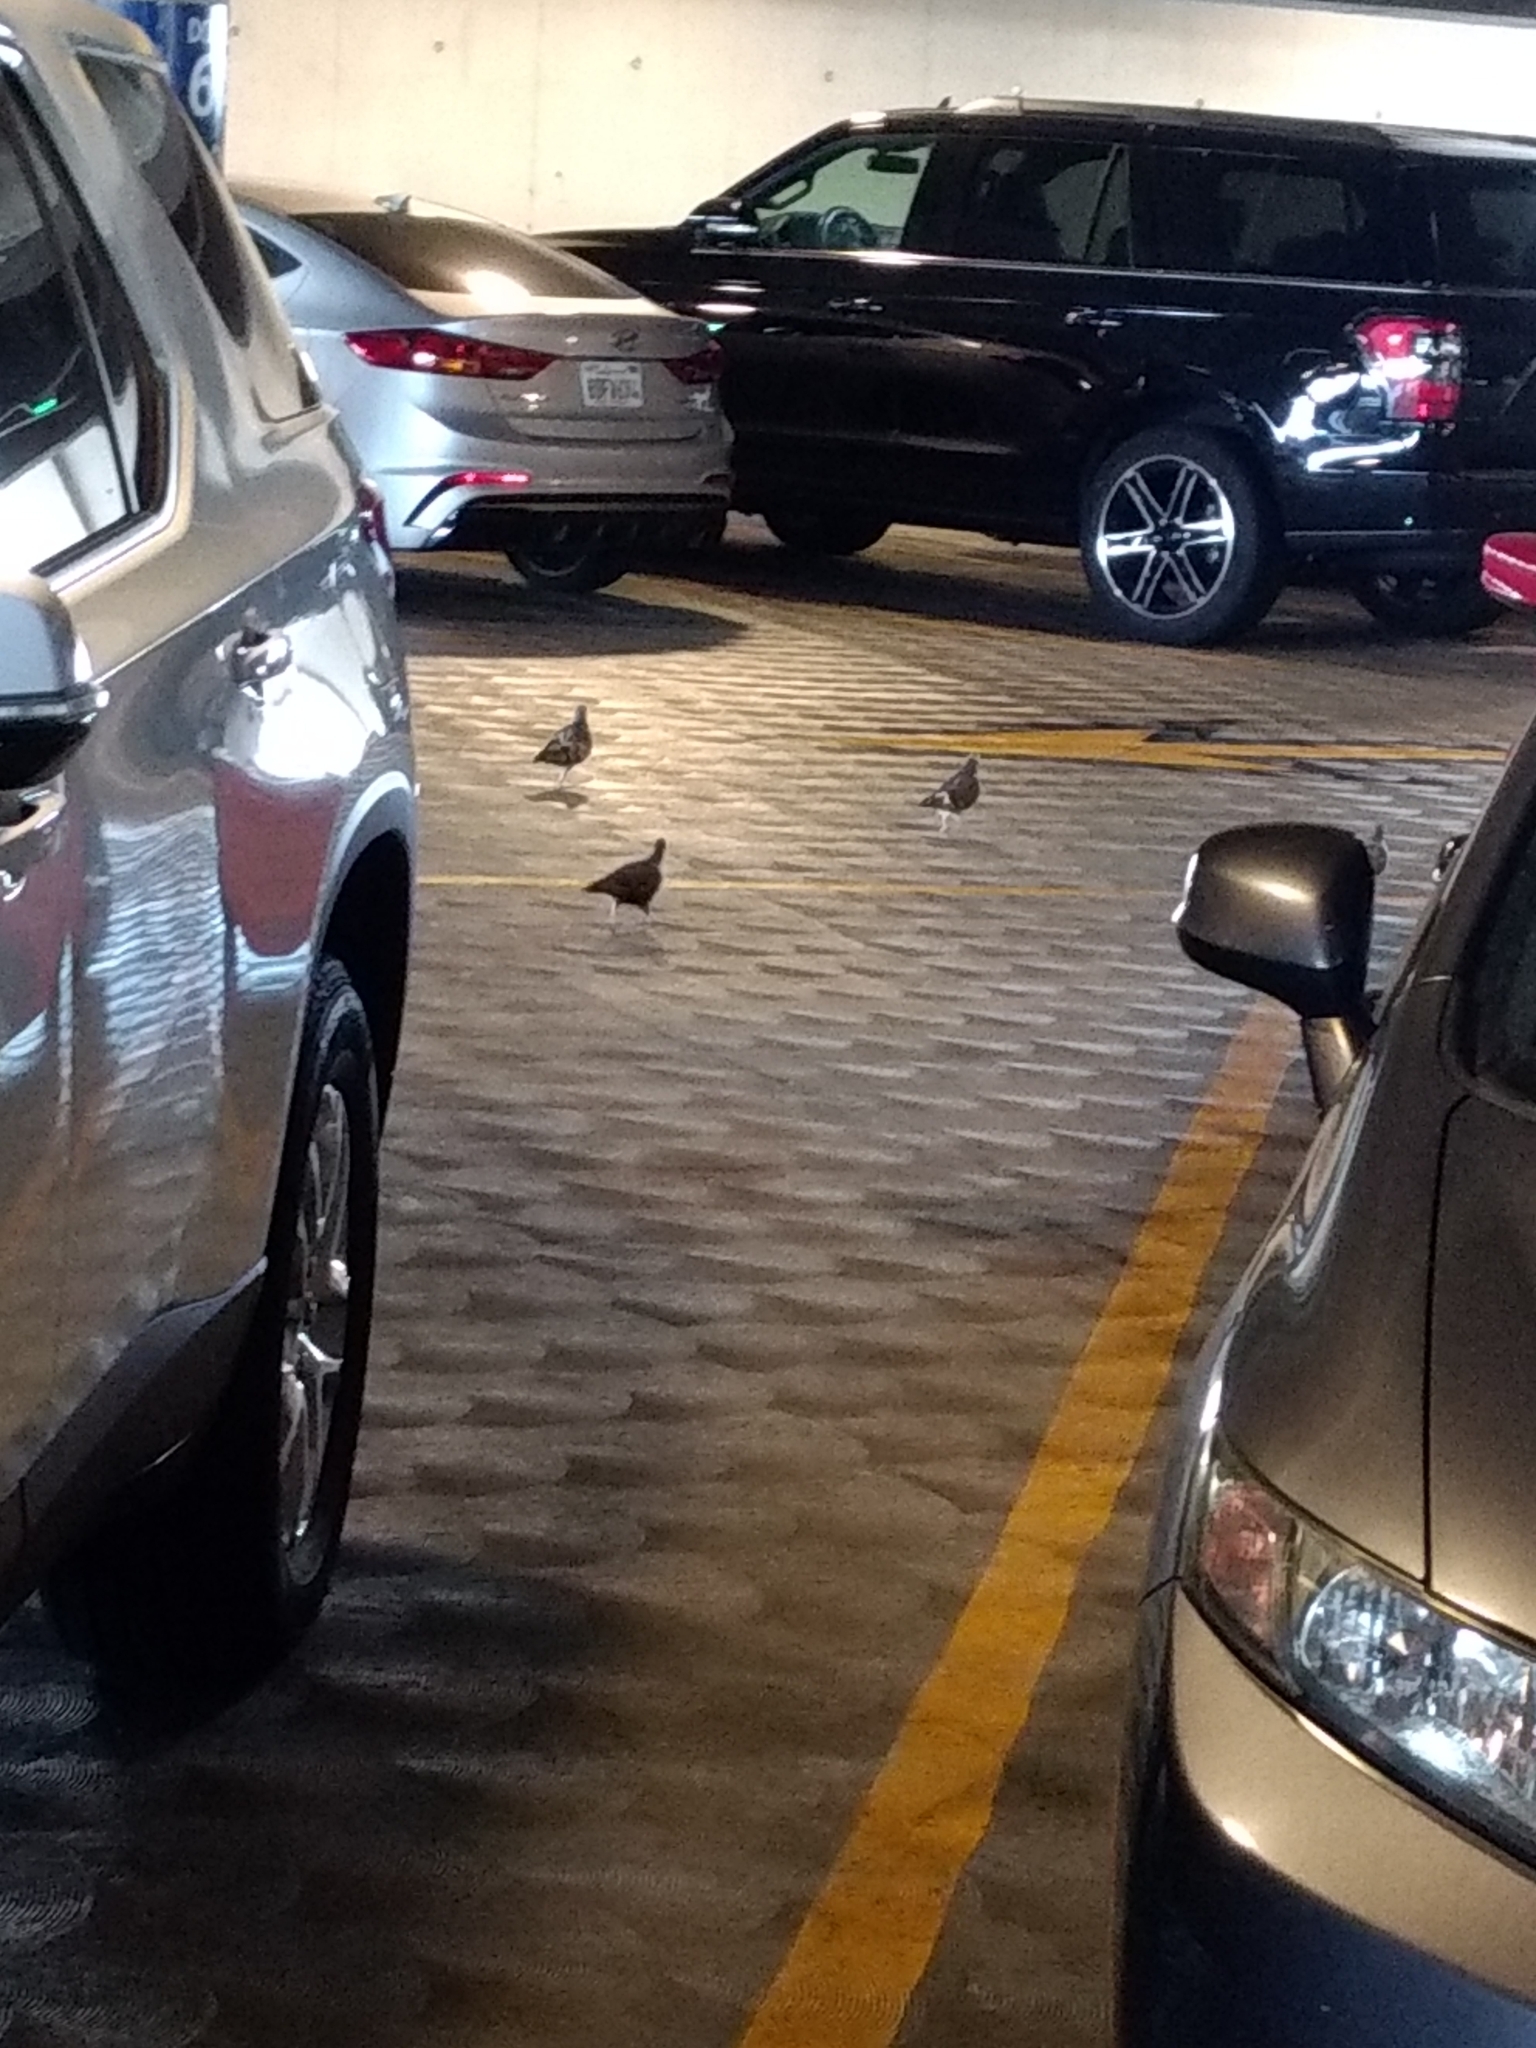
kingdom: Animalia
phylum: Chordata
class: Aves
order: Columbiformes
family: Columbidae
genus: Columba
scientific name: Columba livia
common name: Rock pigeon
